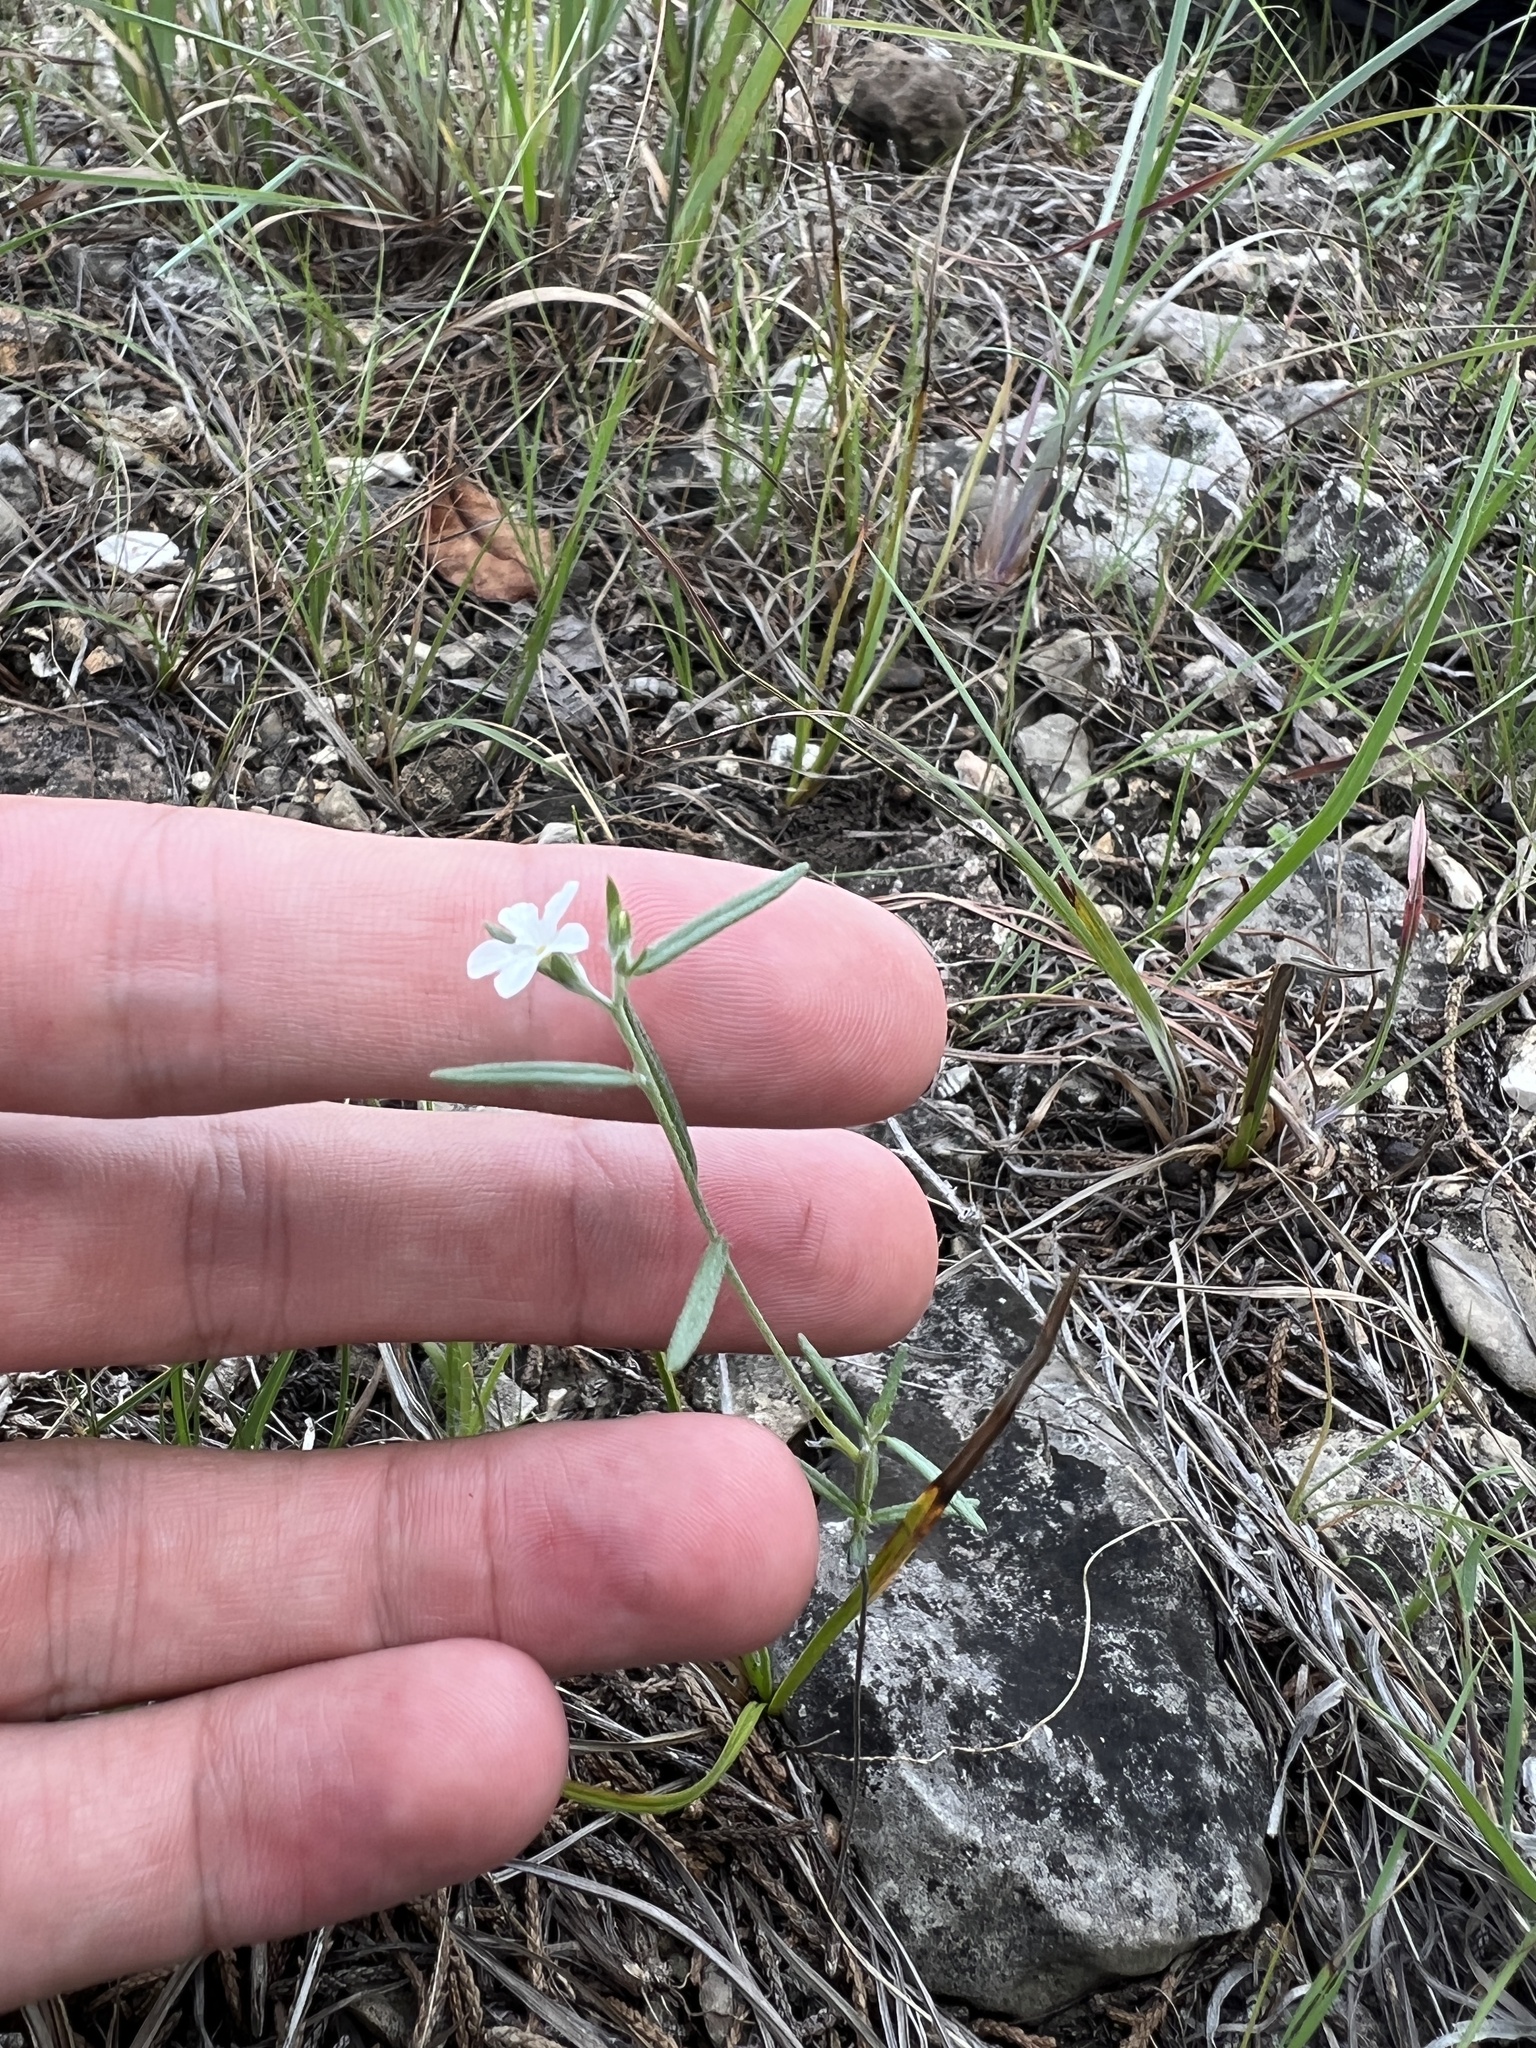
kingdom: Plantae
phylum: Tracheophyta
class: Magnoliopsida
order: Boraginales
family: Heliotropiaceae
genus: Euploca
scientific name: Euploca tenella
